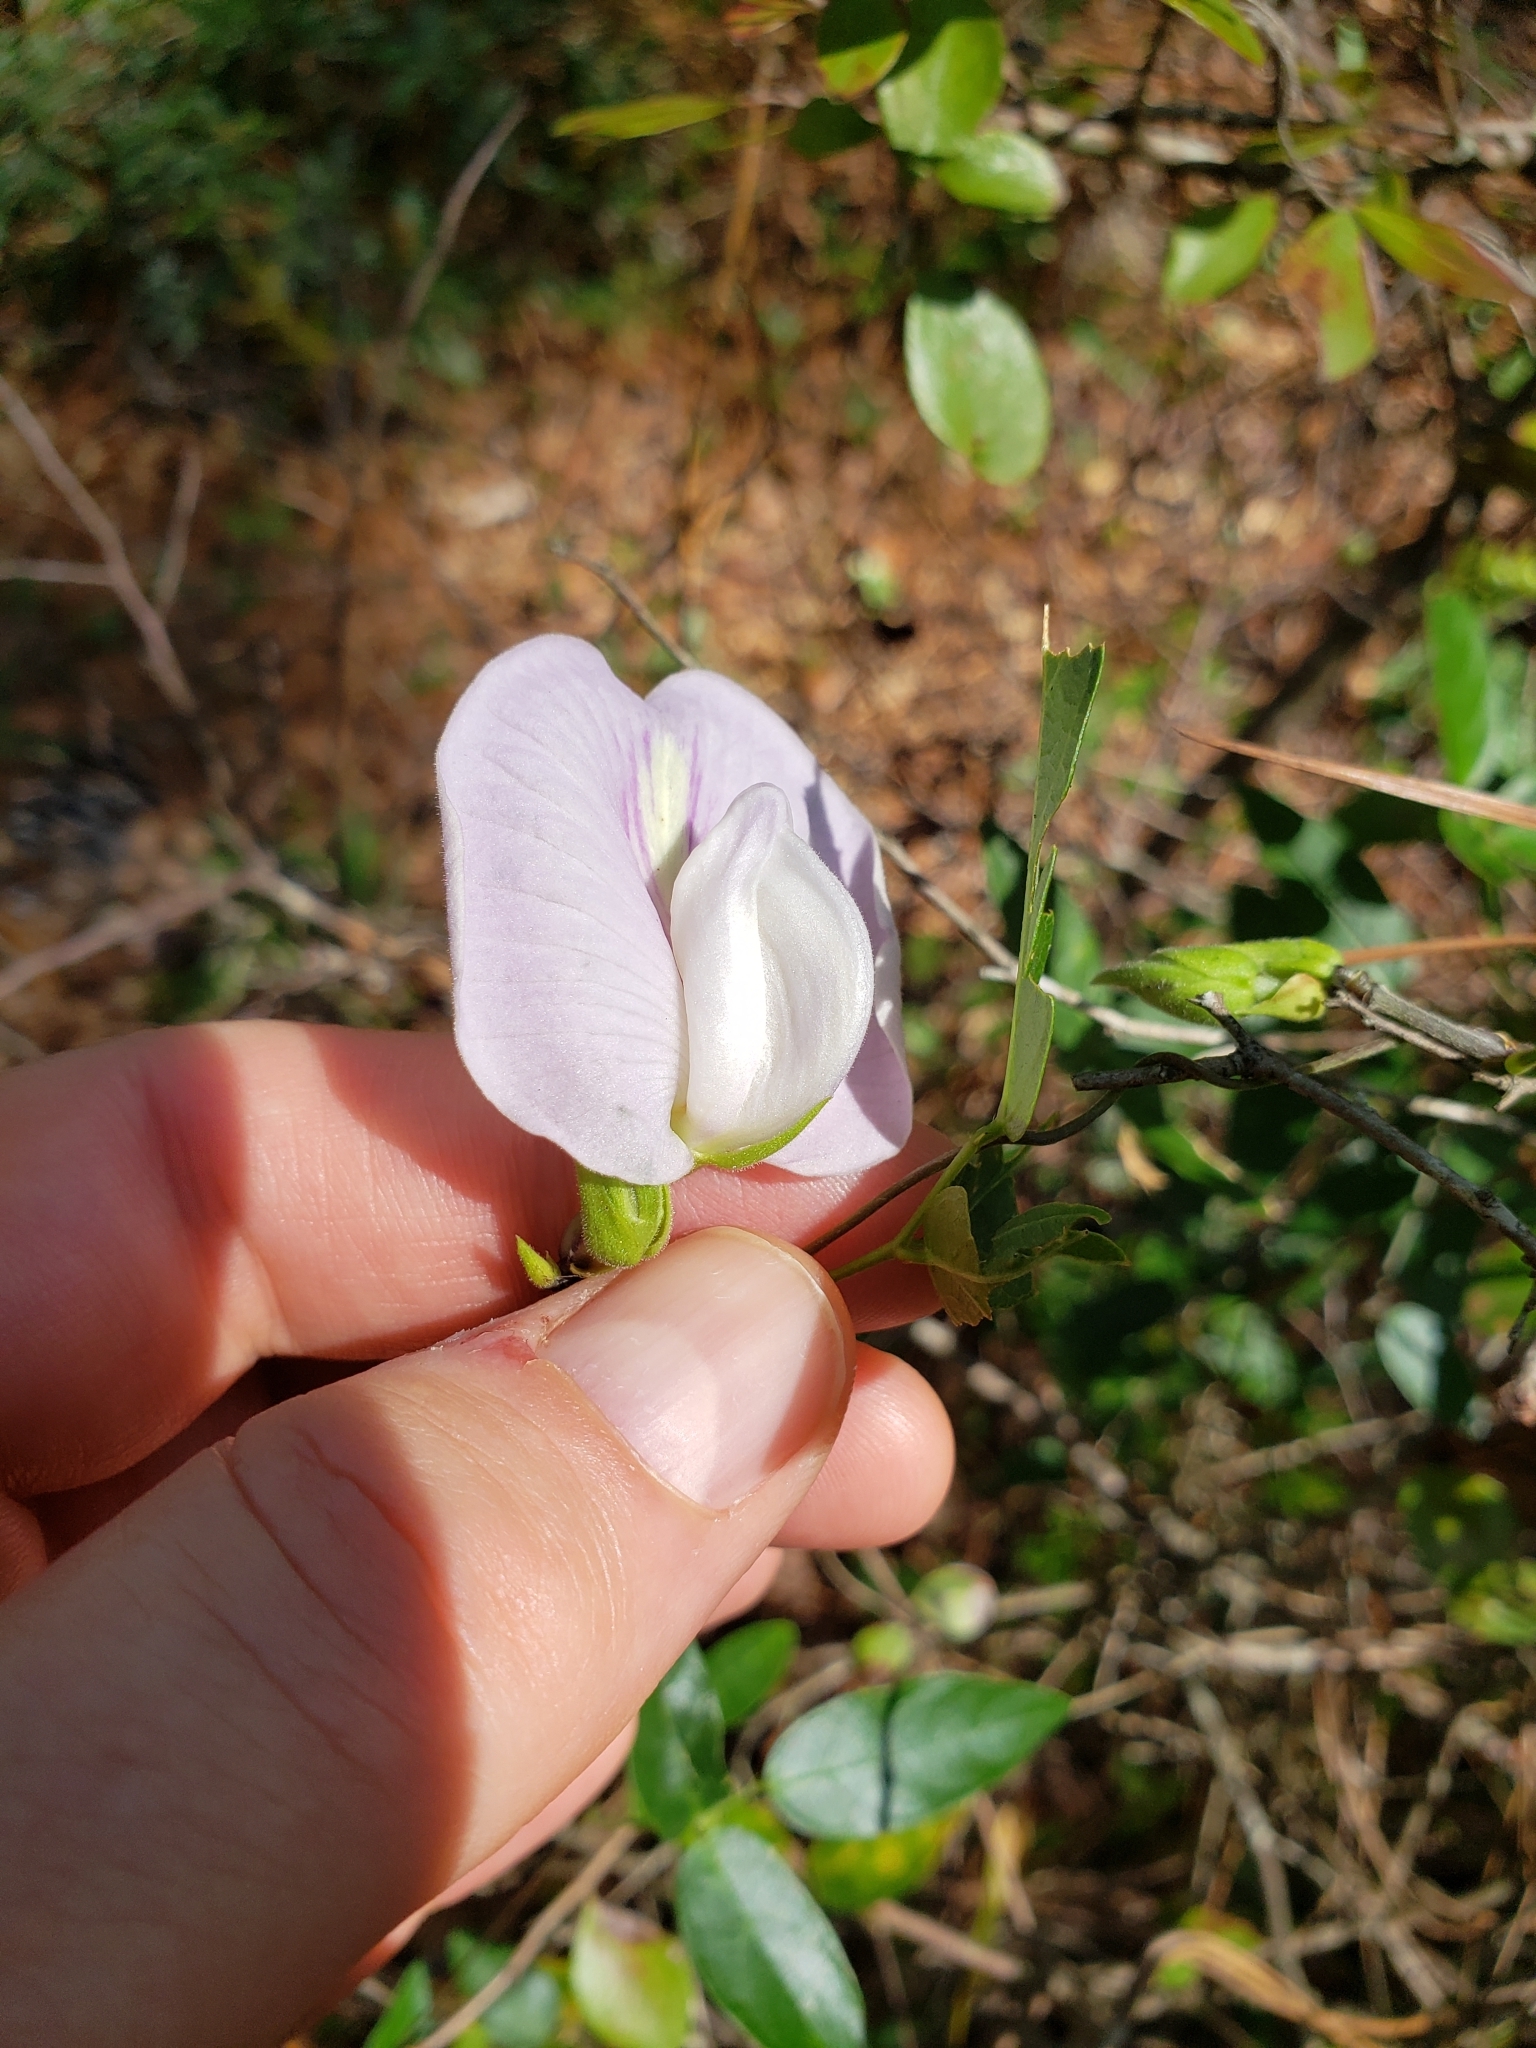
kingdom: Plantae
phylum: Tracheophyta
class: Magnoliopsida
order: Fabales
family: Fabaceae
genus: Centrosema
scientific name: Centrosema virginianum
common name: Butterfly-pea
